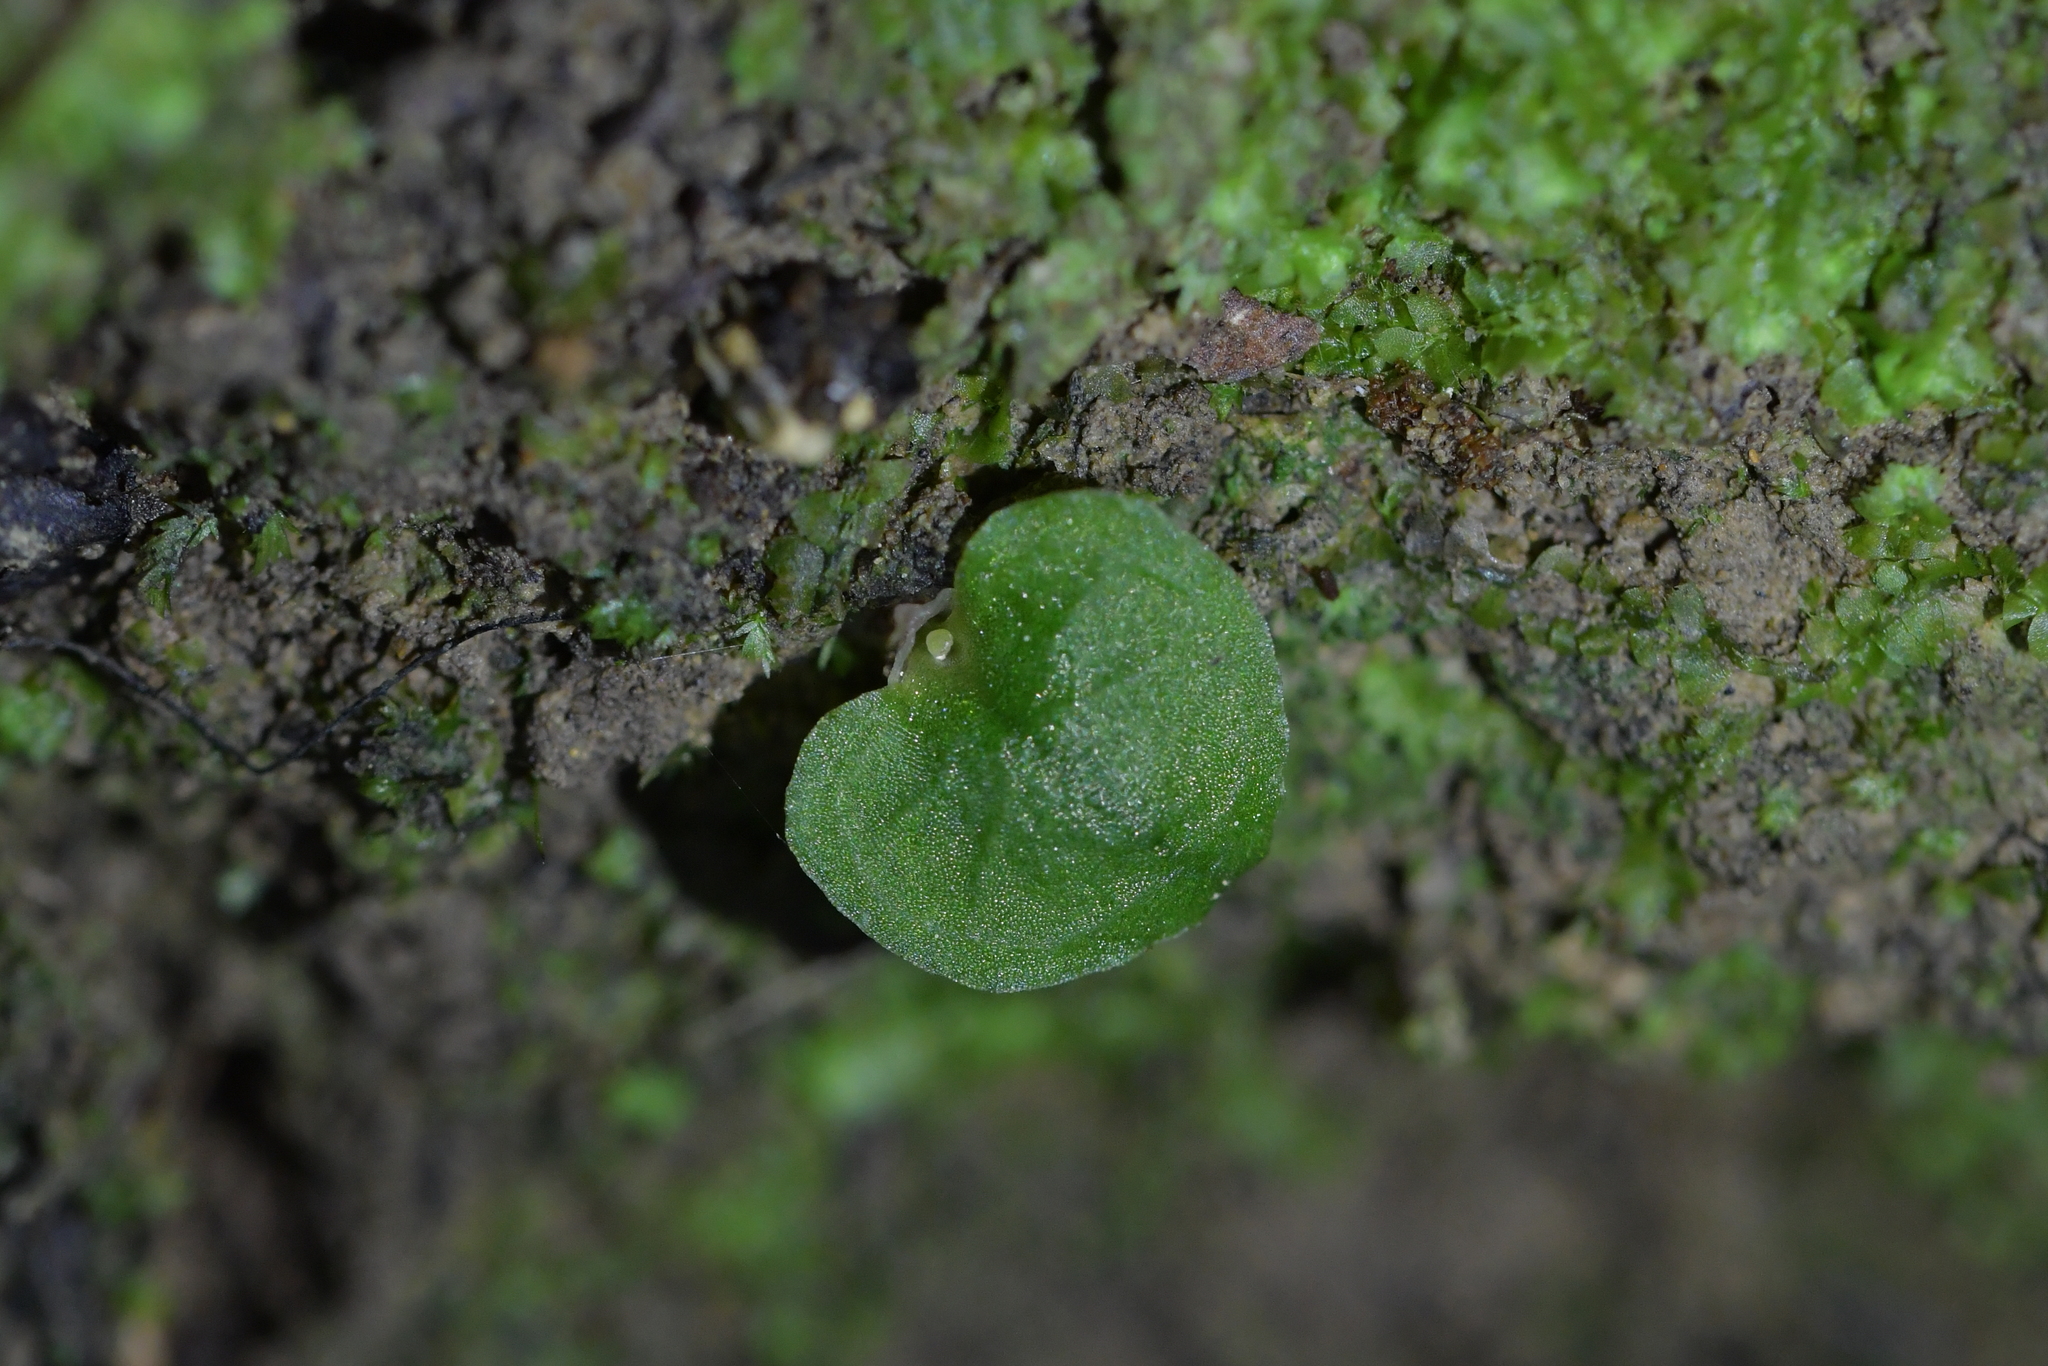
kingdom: Plantae
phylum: Tracheophyta
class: Liliopsida
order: Asparagales
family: Orchidaceae
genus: Corybas
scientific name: Corybas cheesemanii
